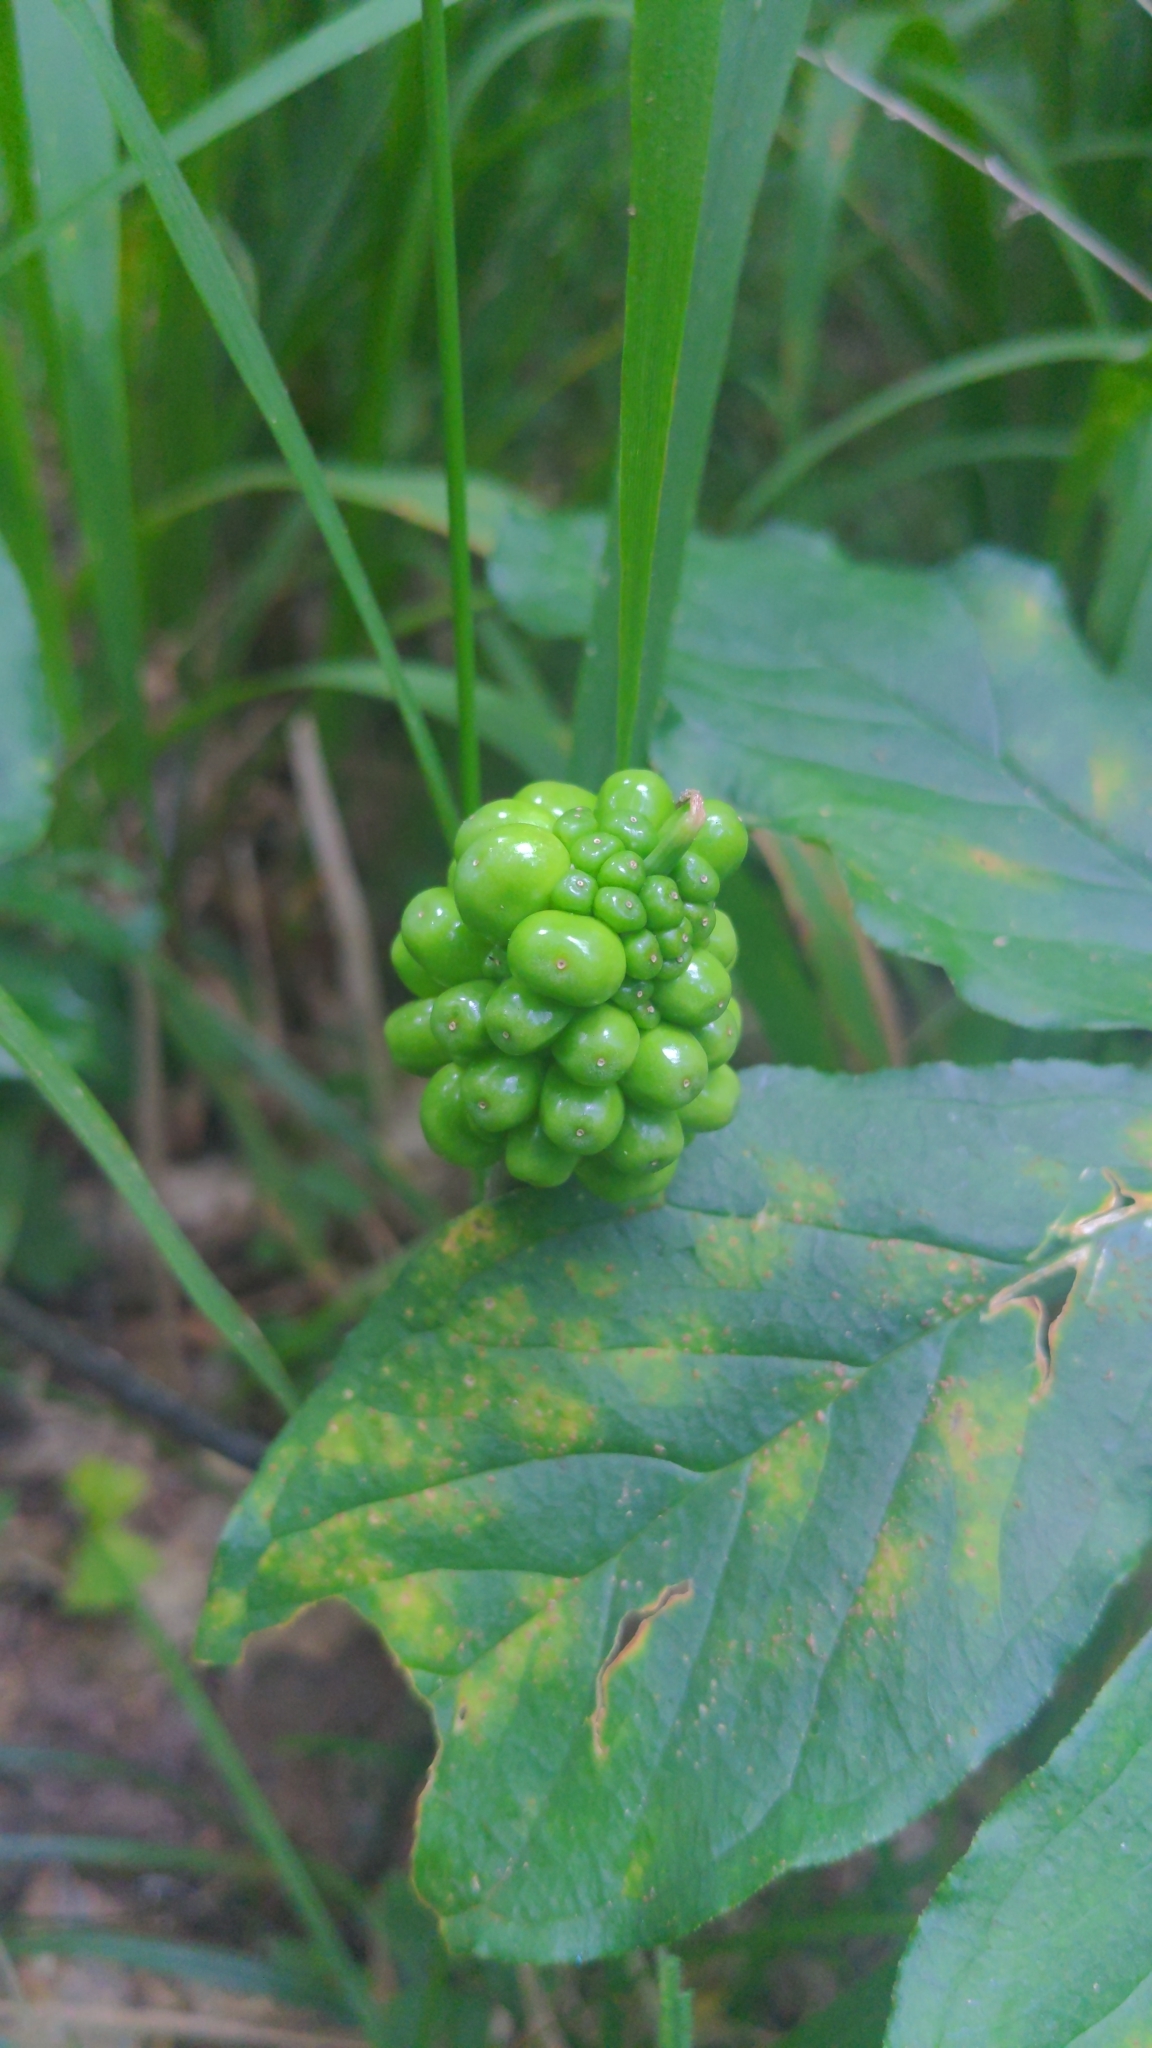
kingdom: Plantae
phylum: Tracheophyta
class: Liliopsida
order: Alismatales
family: Araceae
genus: Arisaema
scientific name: Arisaema quinatum
